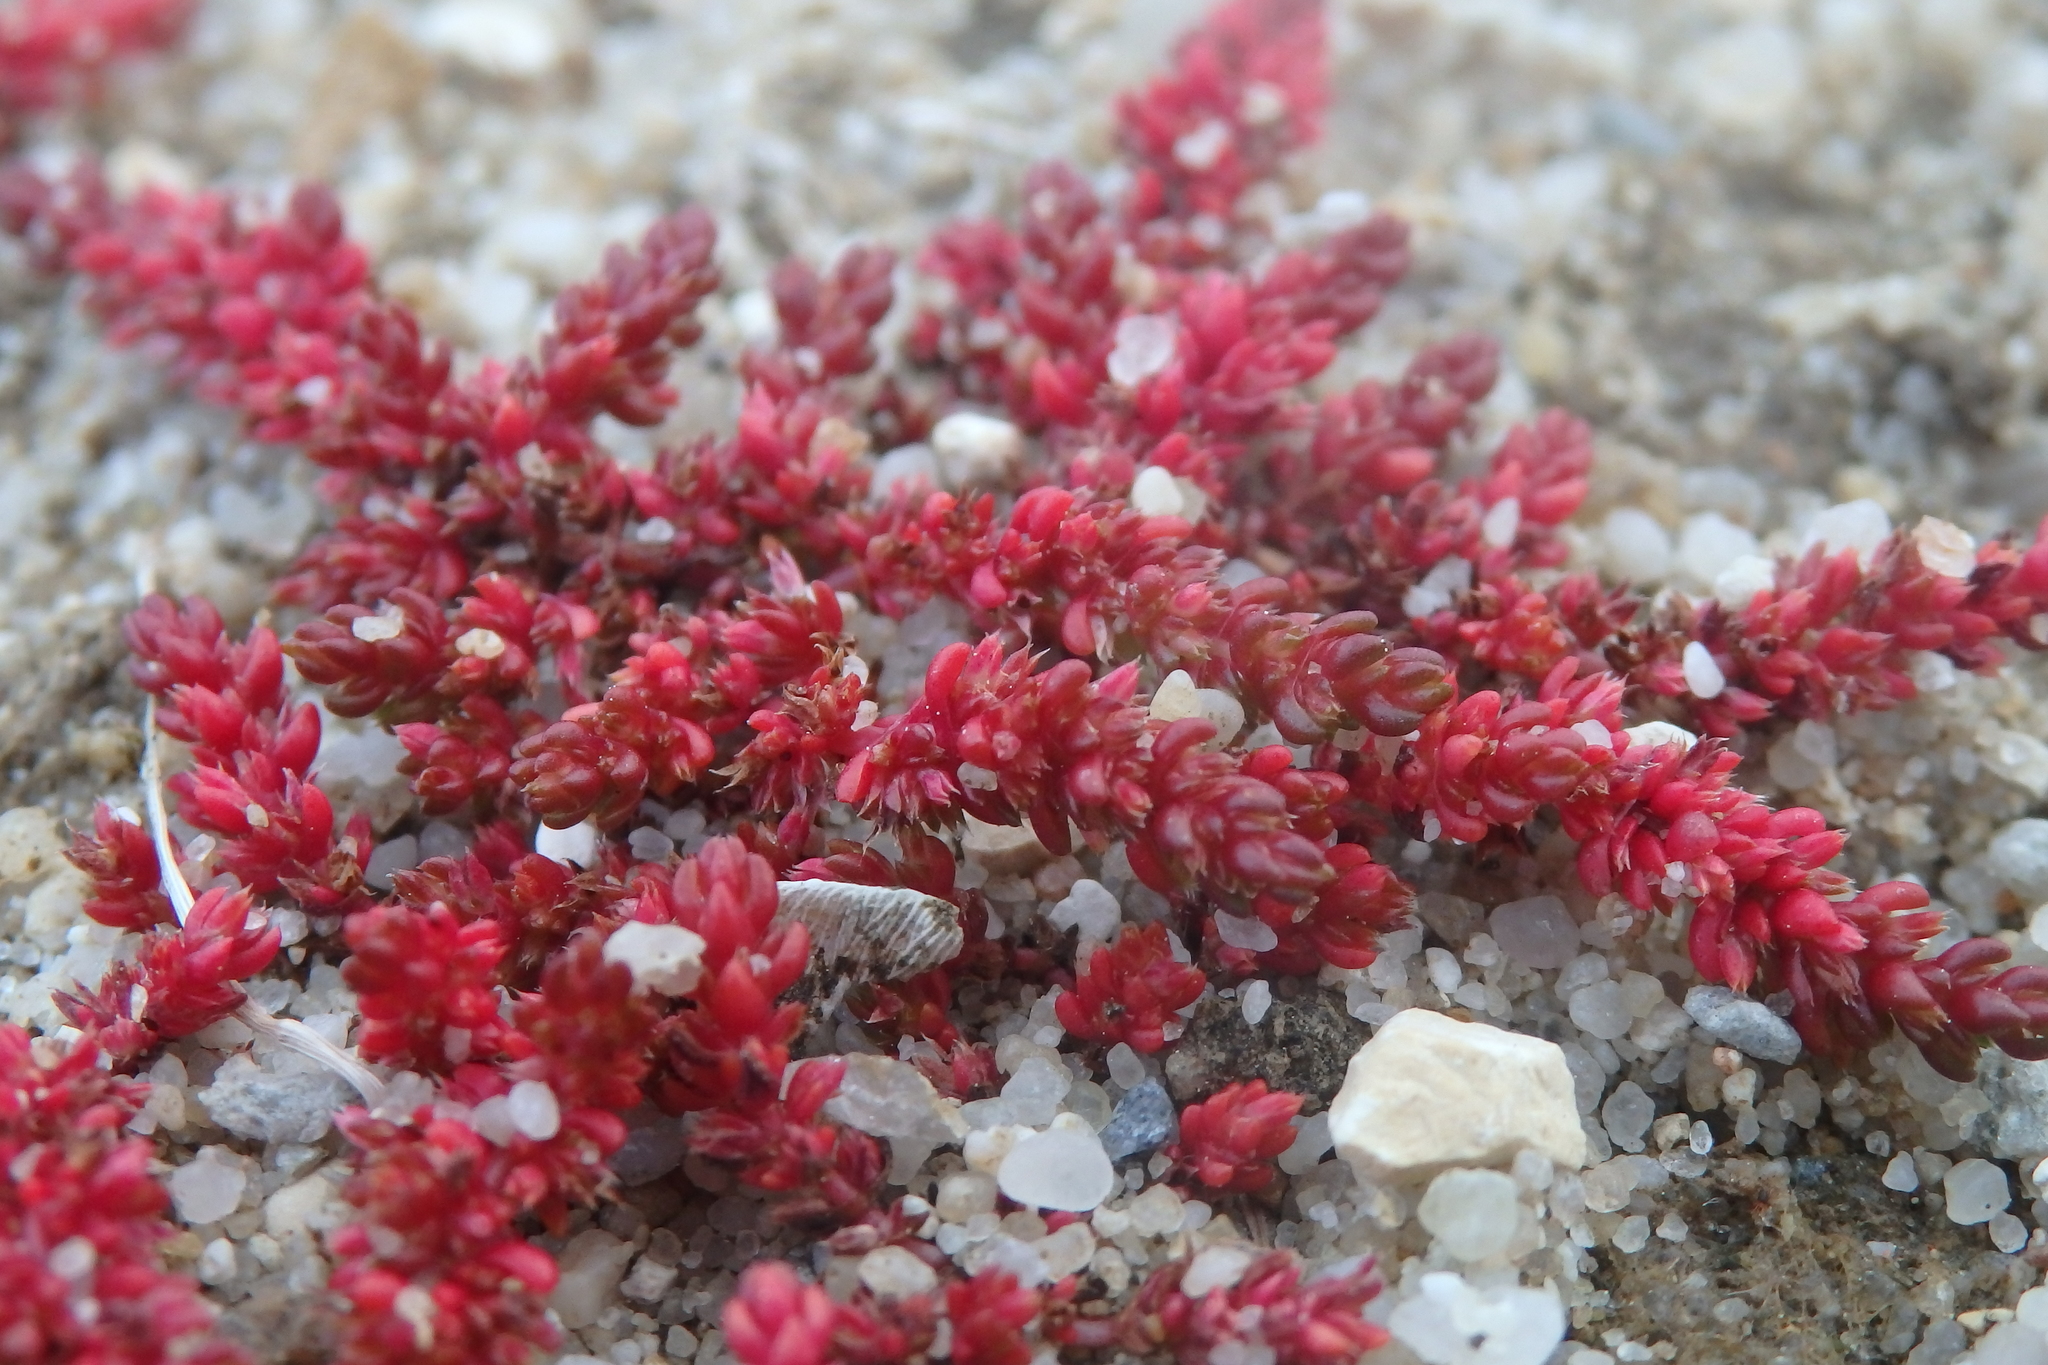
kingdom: Plantae
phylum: Tracheophyta
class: Magnoliopsida
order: Saxifragales
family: Crassulaceae
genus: Crassula
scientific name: Crassula tillaea
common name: Mossy stonecrop
